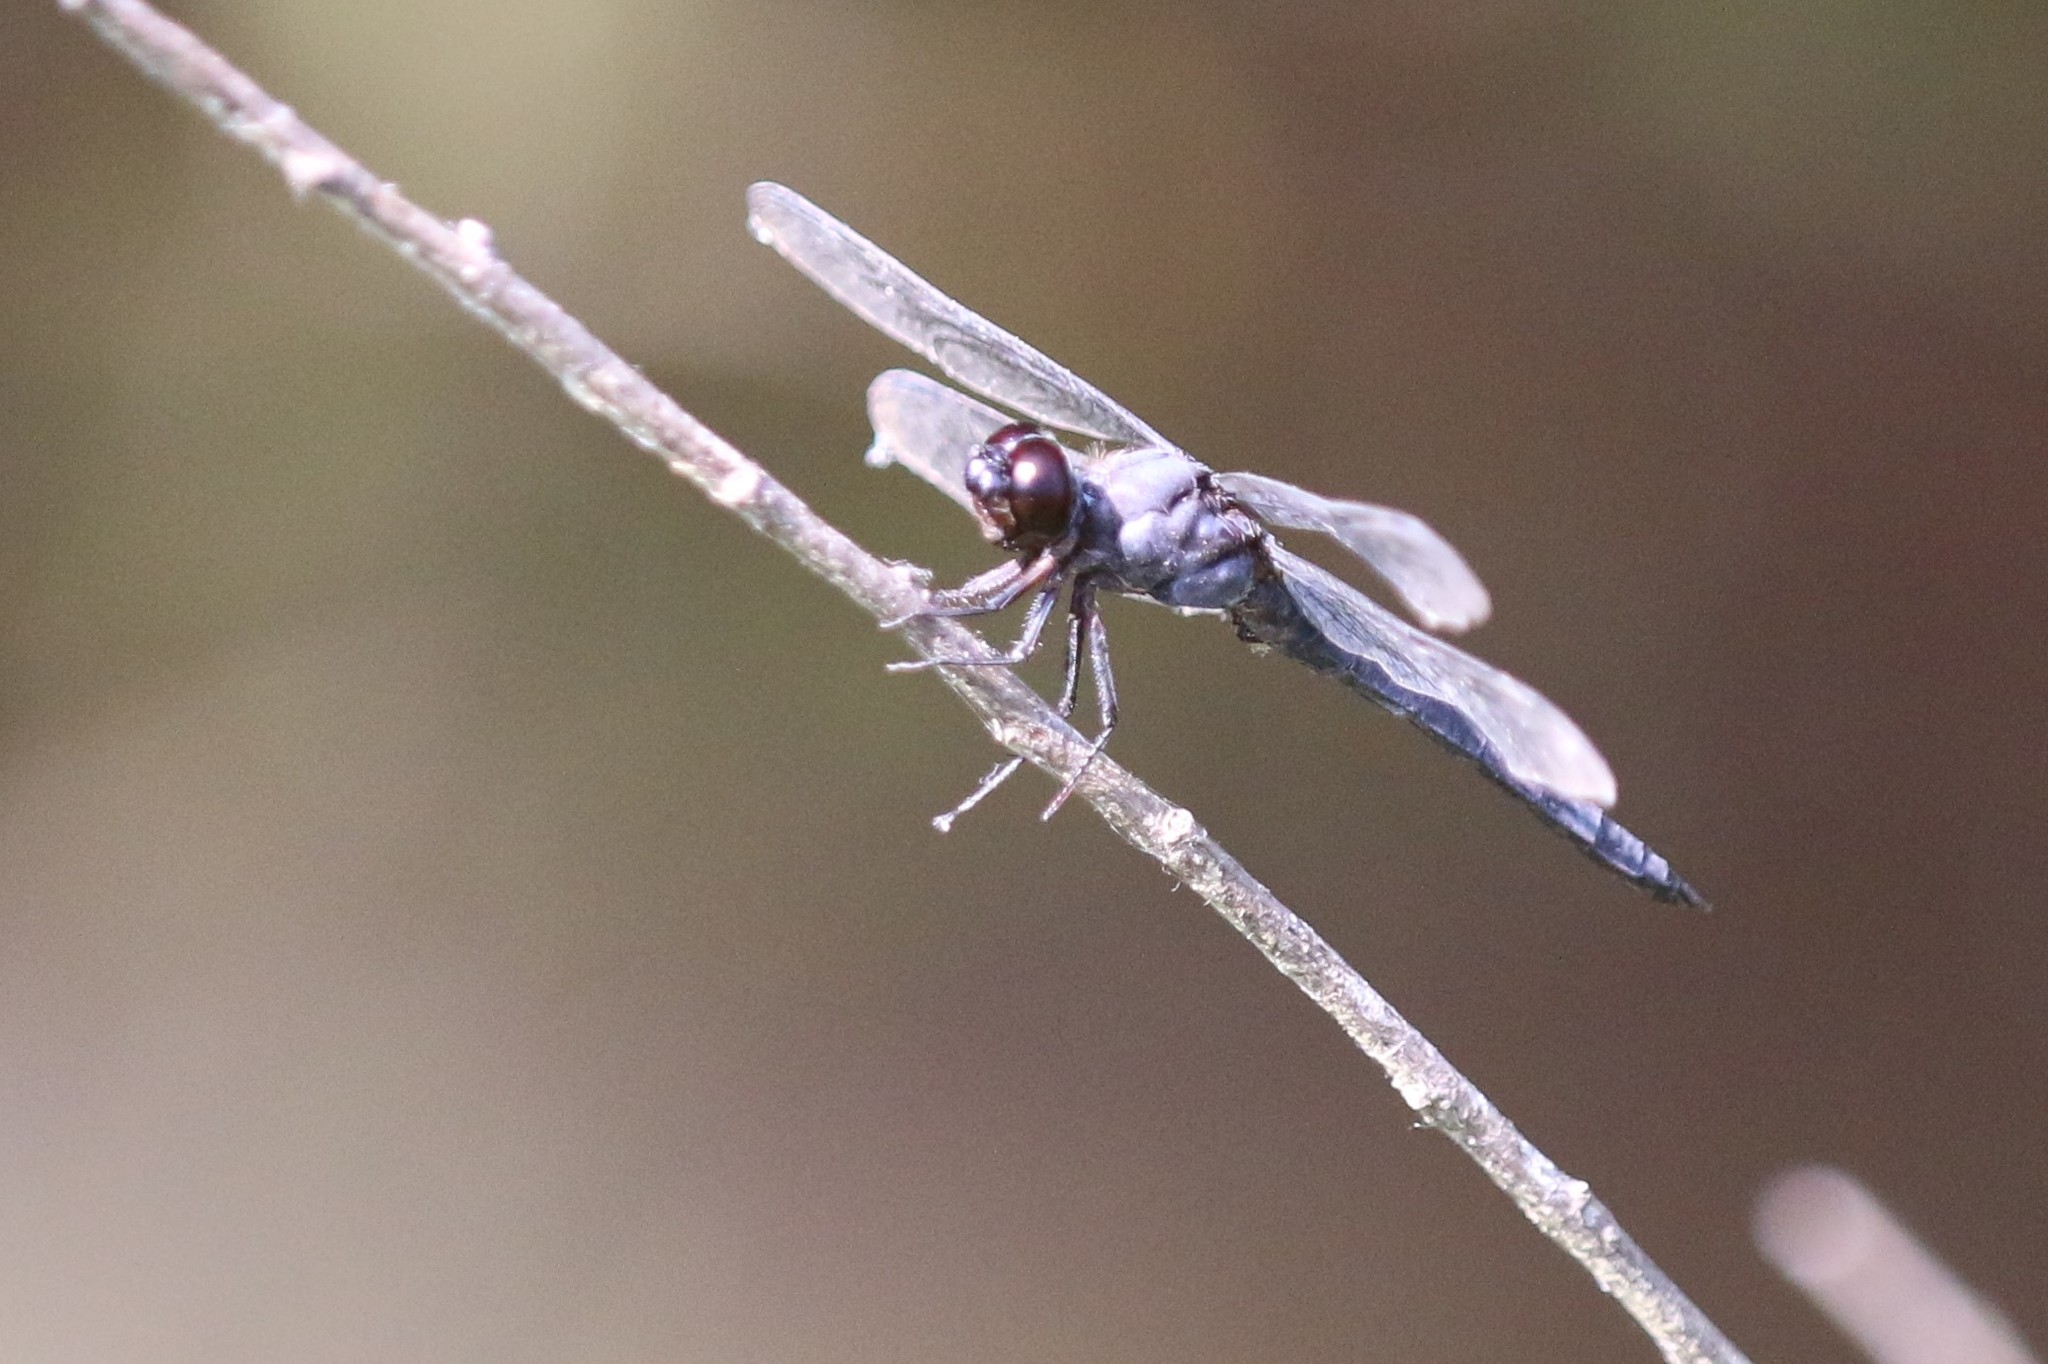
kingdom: Animalia
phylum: Arthropoda
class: Insecta
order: Odonata
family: Libellulidae
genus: Libellula
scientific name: Libellula incesta
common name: Slaty skimmer
